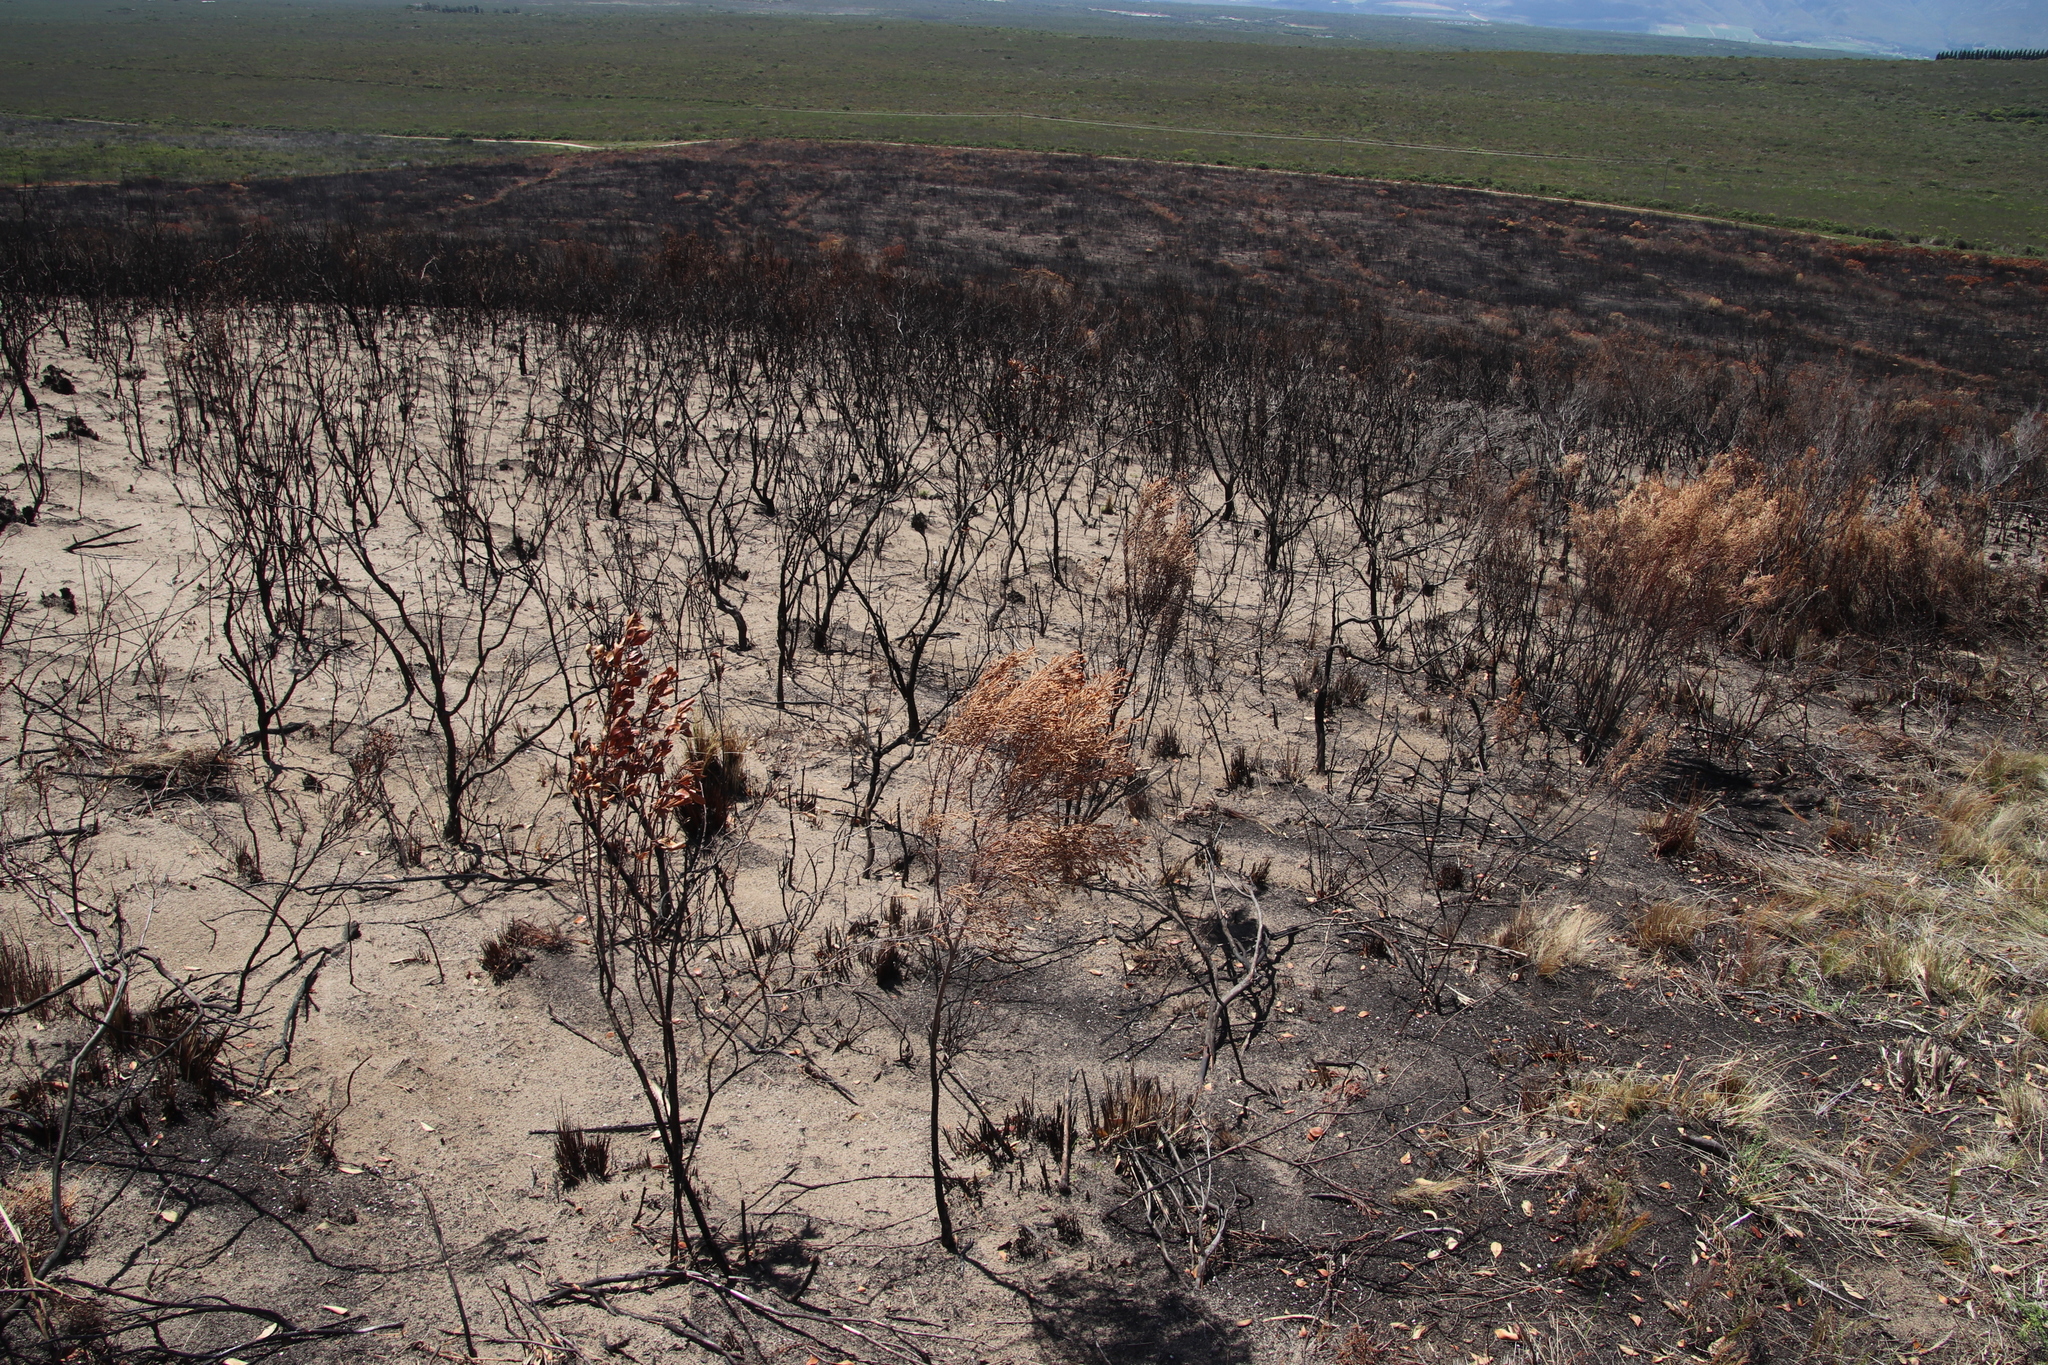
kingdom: Plantae
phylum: Tracheophyta
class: Magnoliopsida
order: Proteales
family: Proteaceae
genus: Leucadendron
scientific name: Leucadendron coniferum
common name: Dune conebush
